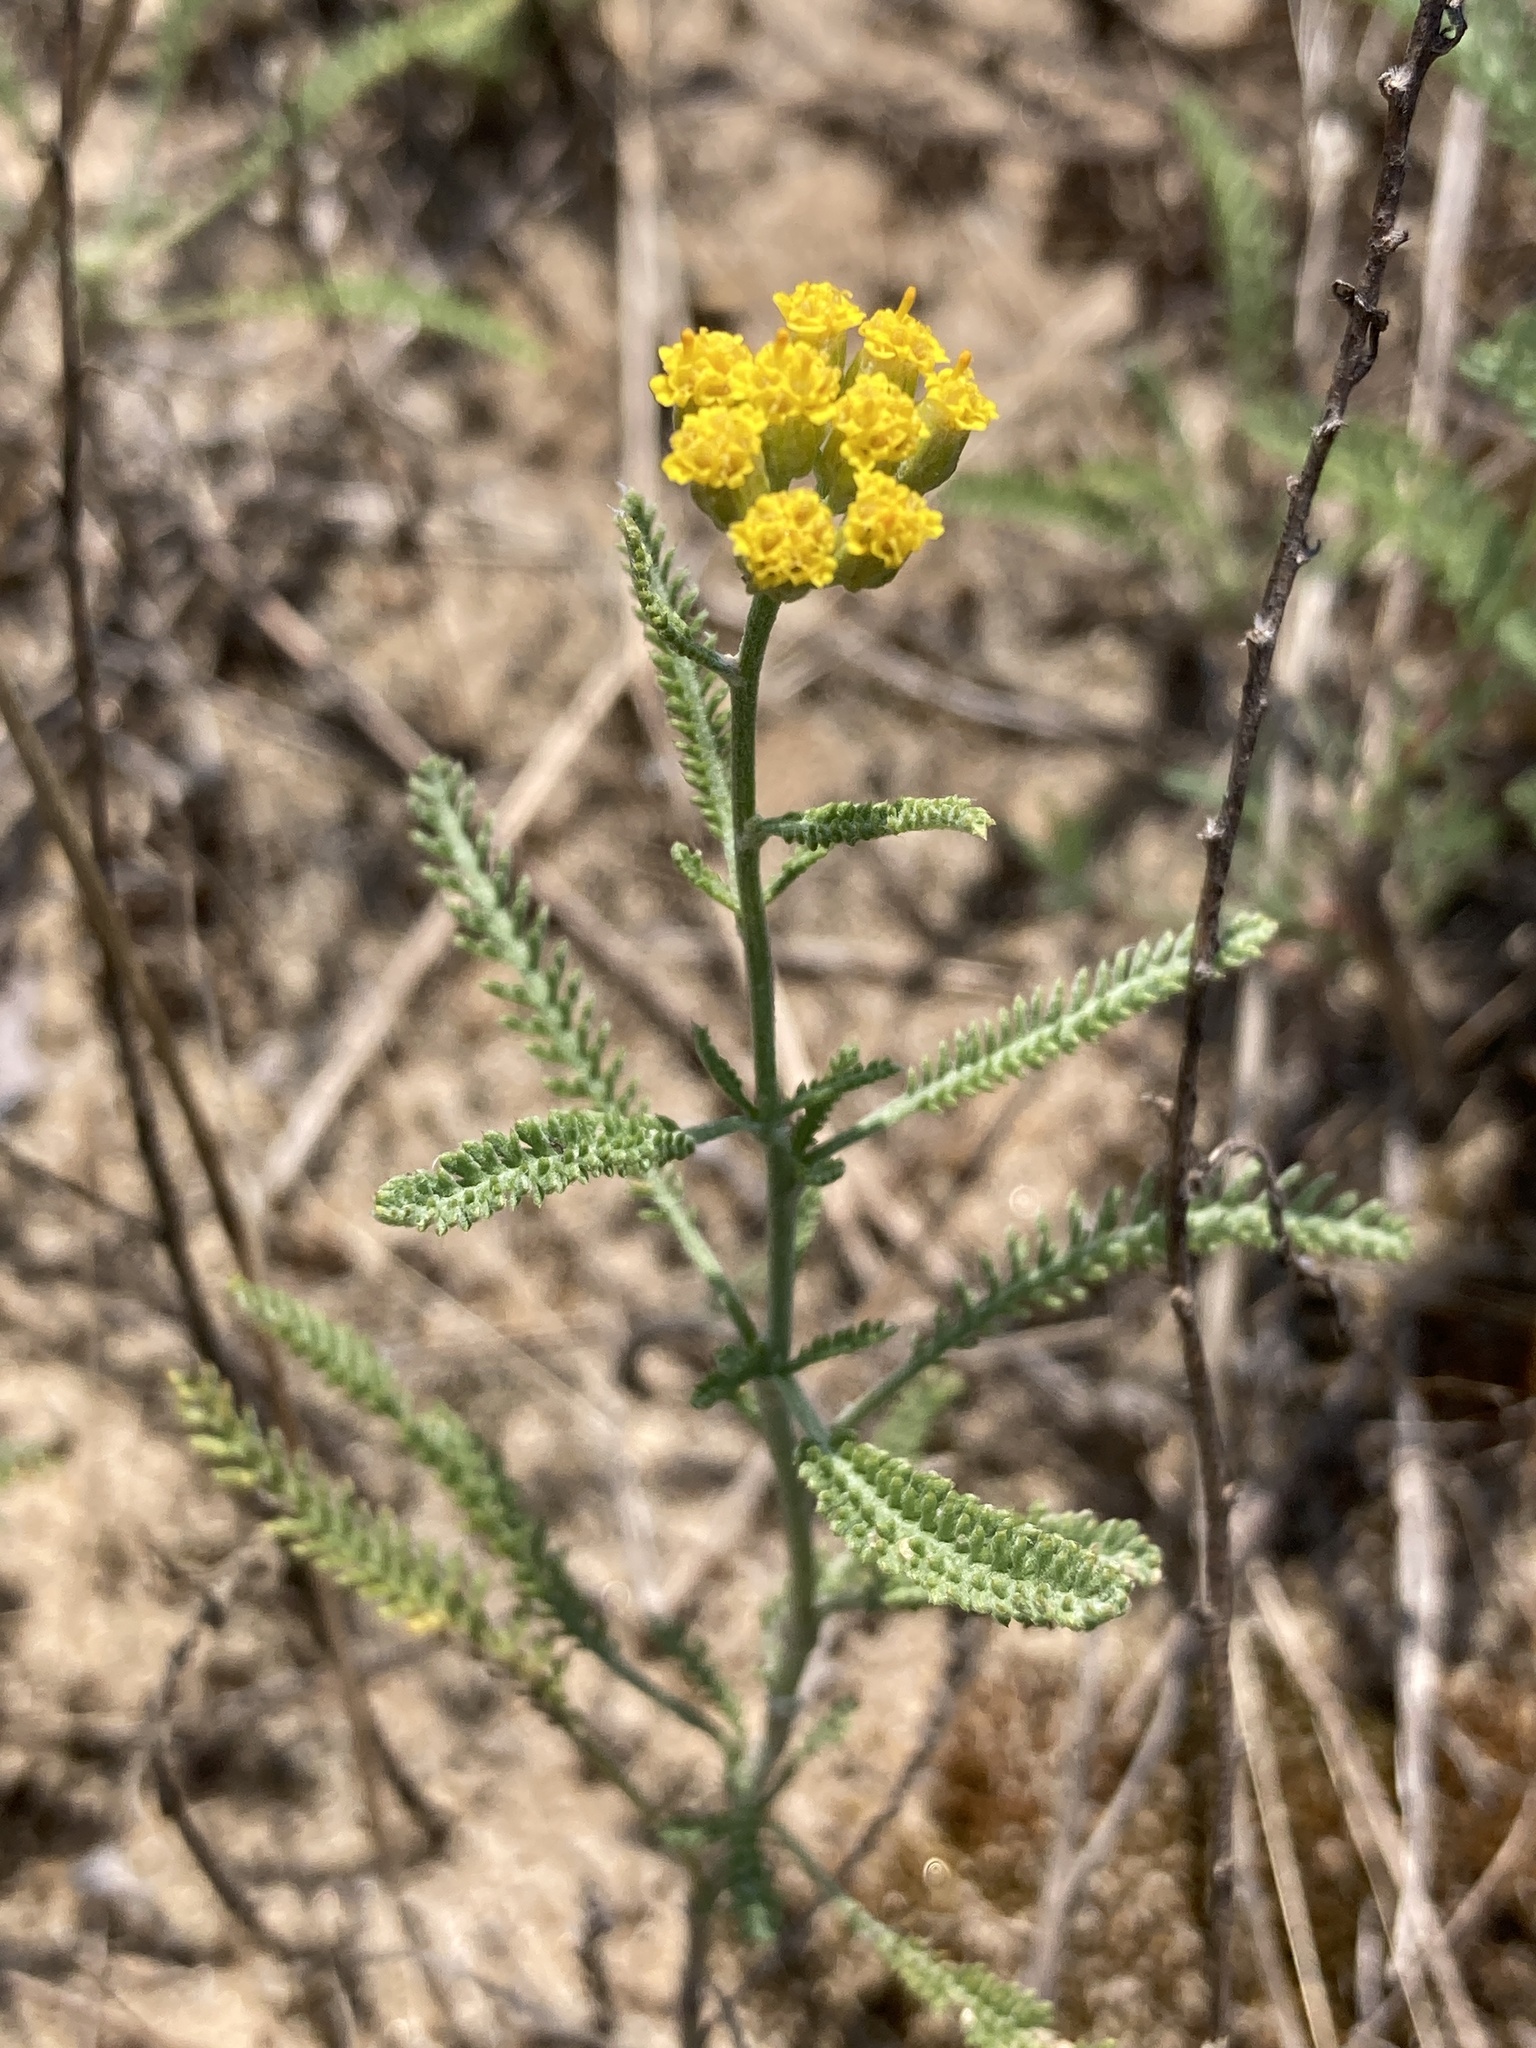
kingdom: Plantae
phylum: Tracheophyta
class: Magnoliopsida
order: Asterales
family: Asteraceae
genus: Achillea
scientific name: Achillea micrantha
